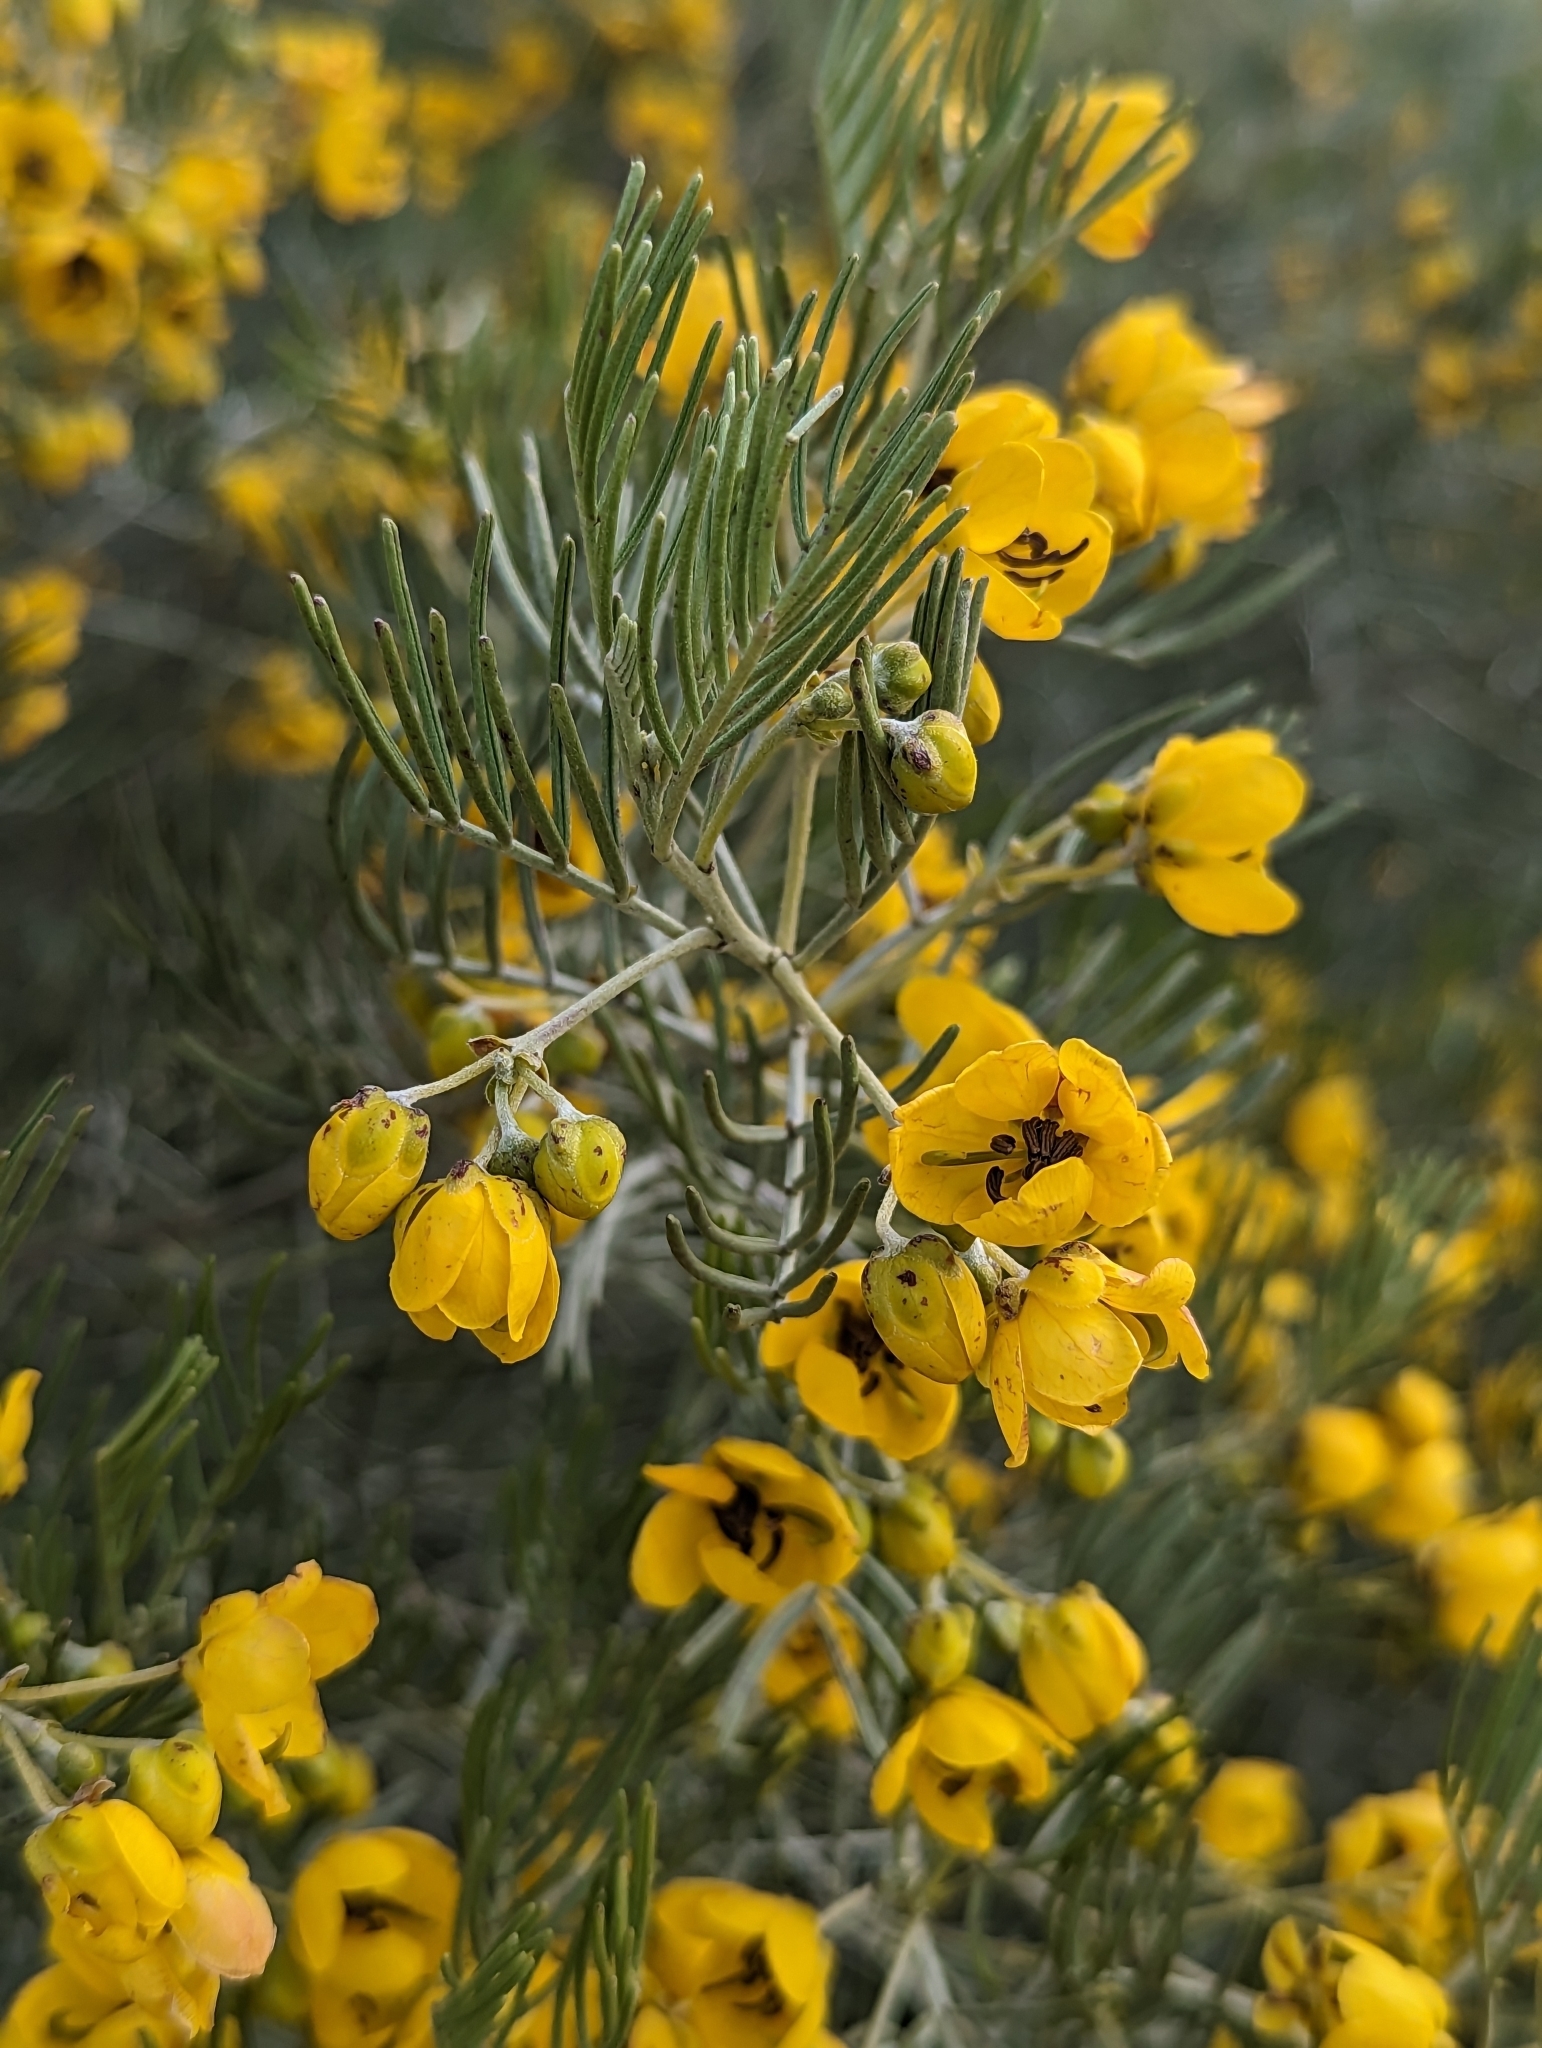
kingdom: Plantae
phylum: Tracheophyta
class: Magnoliopsida
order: Fabales
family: Fabaceae
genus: Senna
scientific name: Senna artemisioides
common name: Burnt-leaved acacia
